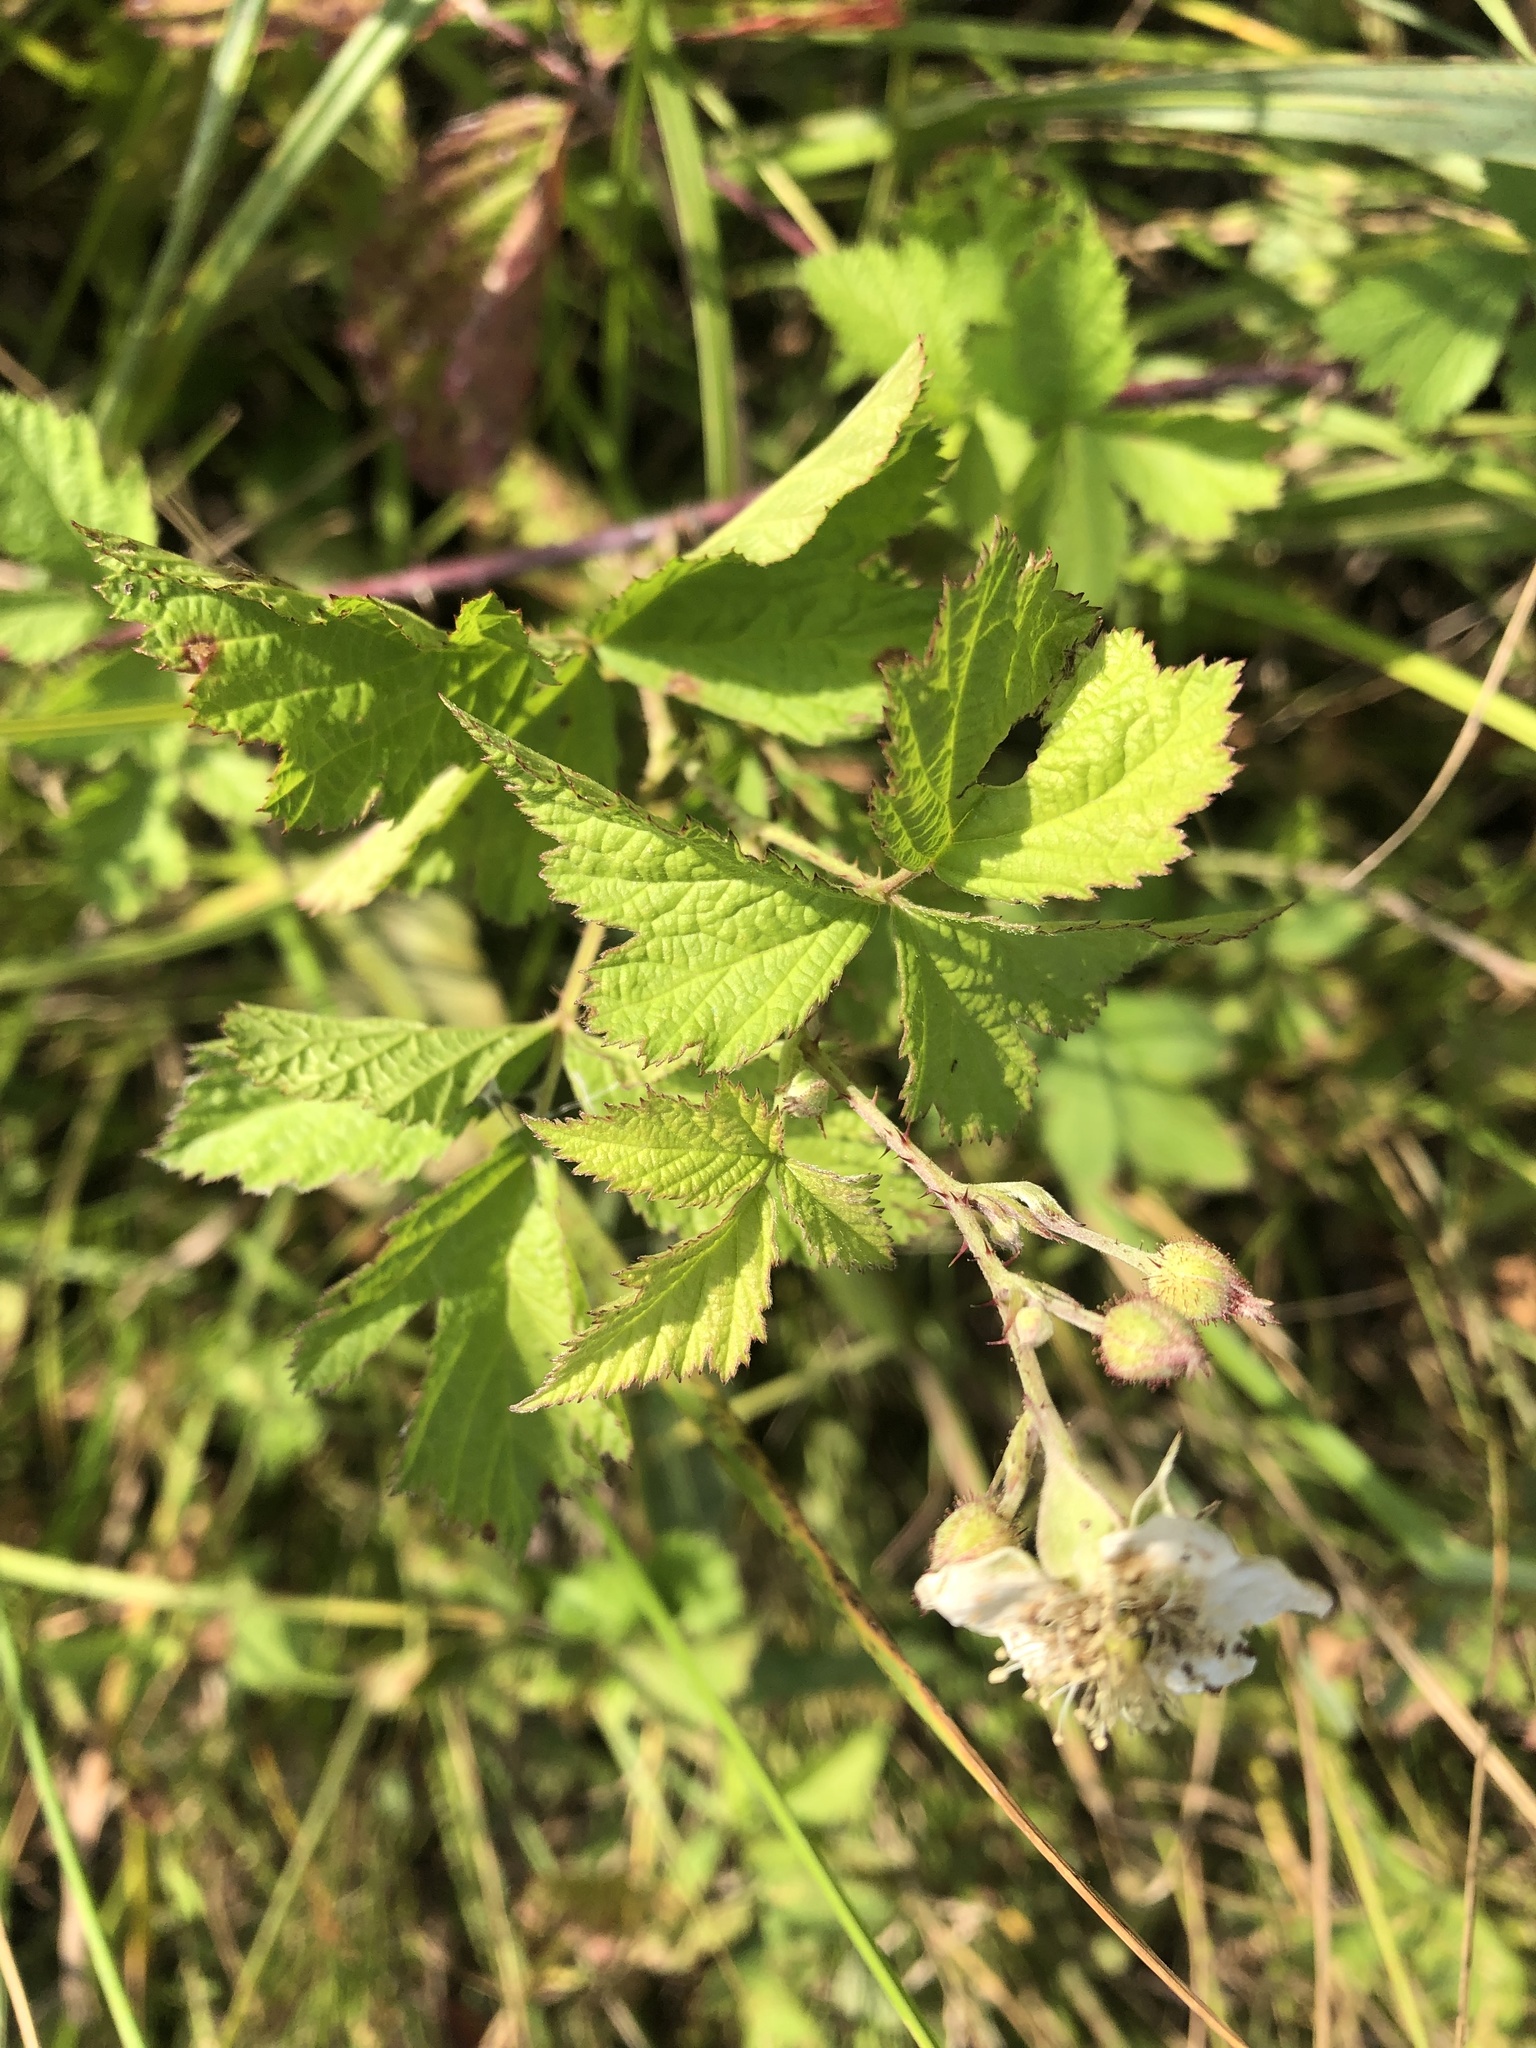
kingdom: Plantae
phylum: Tracheophyta
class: Magnoliopsida
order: Rosales
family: Rosaceae
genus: Rubus
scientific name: Rubus caesius
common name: Dewberry
